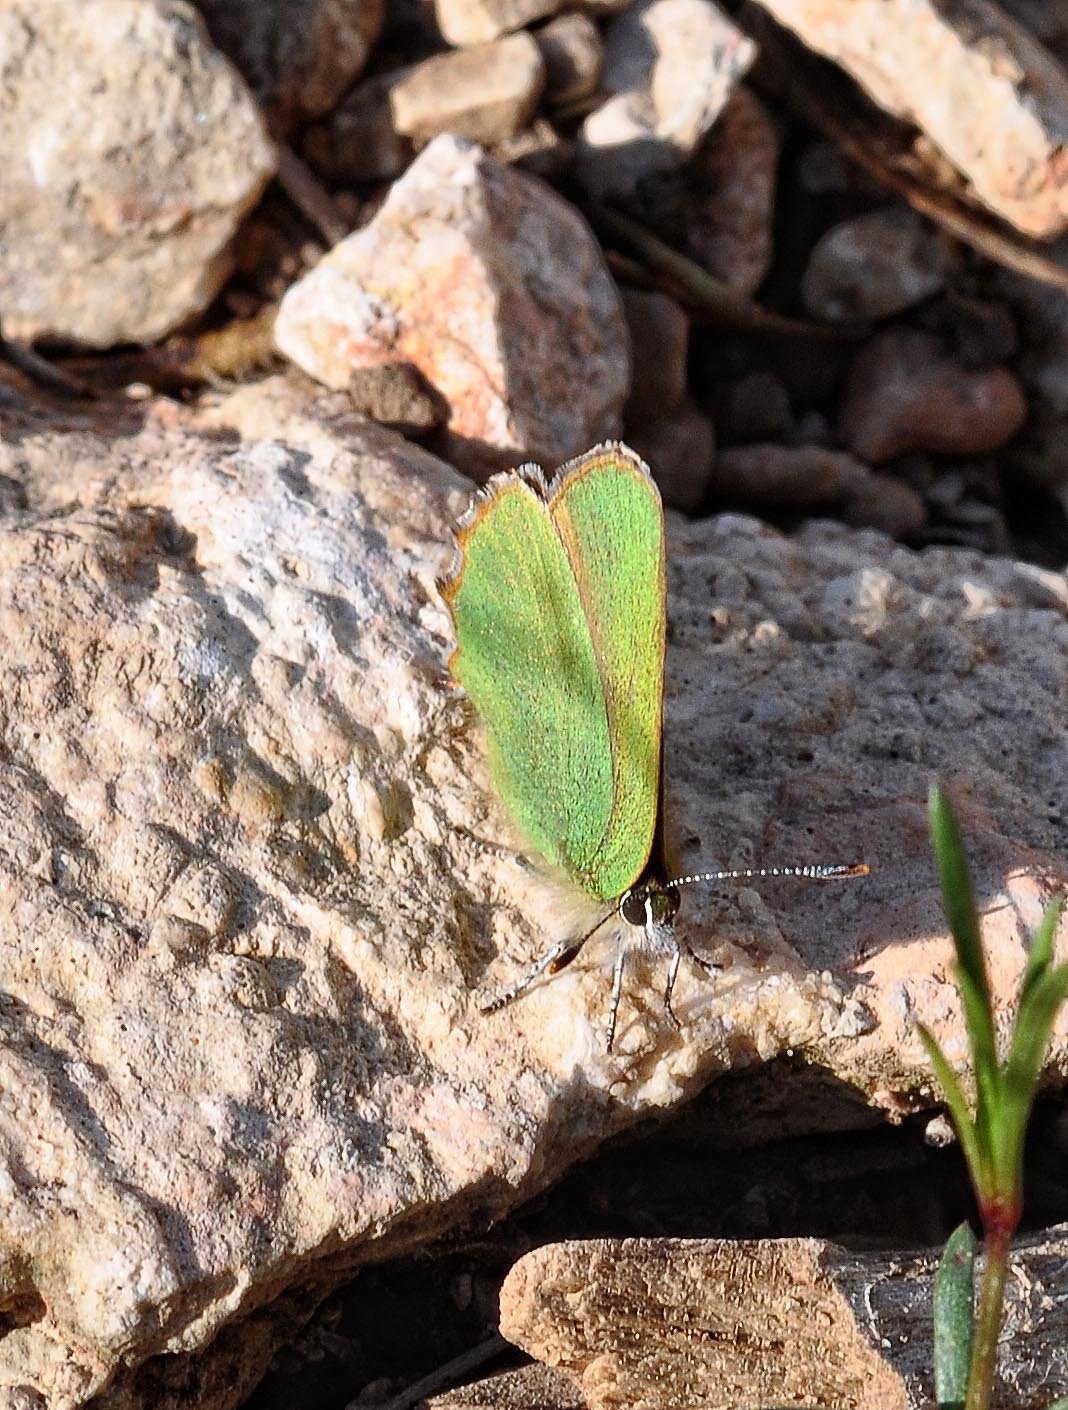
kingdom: Animalia
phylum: Arthropoda
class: Insecta
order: Lepidoptera
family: Lycaenidae
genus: Callophrys
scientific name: Callophrys rubi
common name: Green hairstreak
